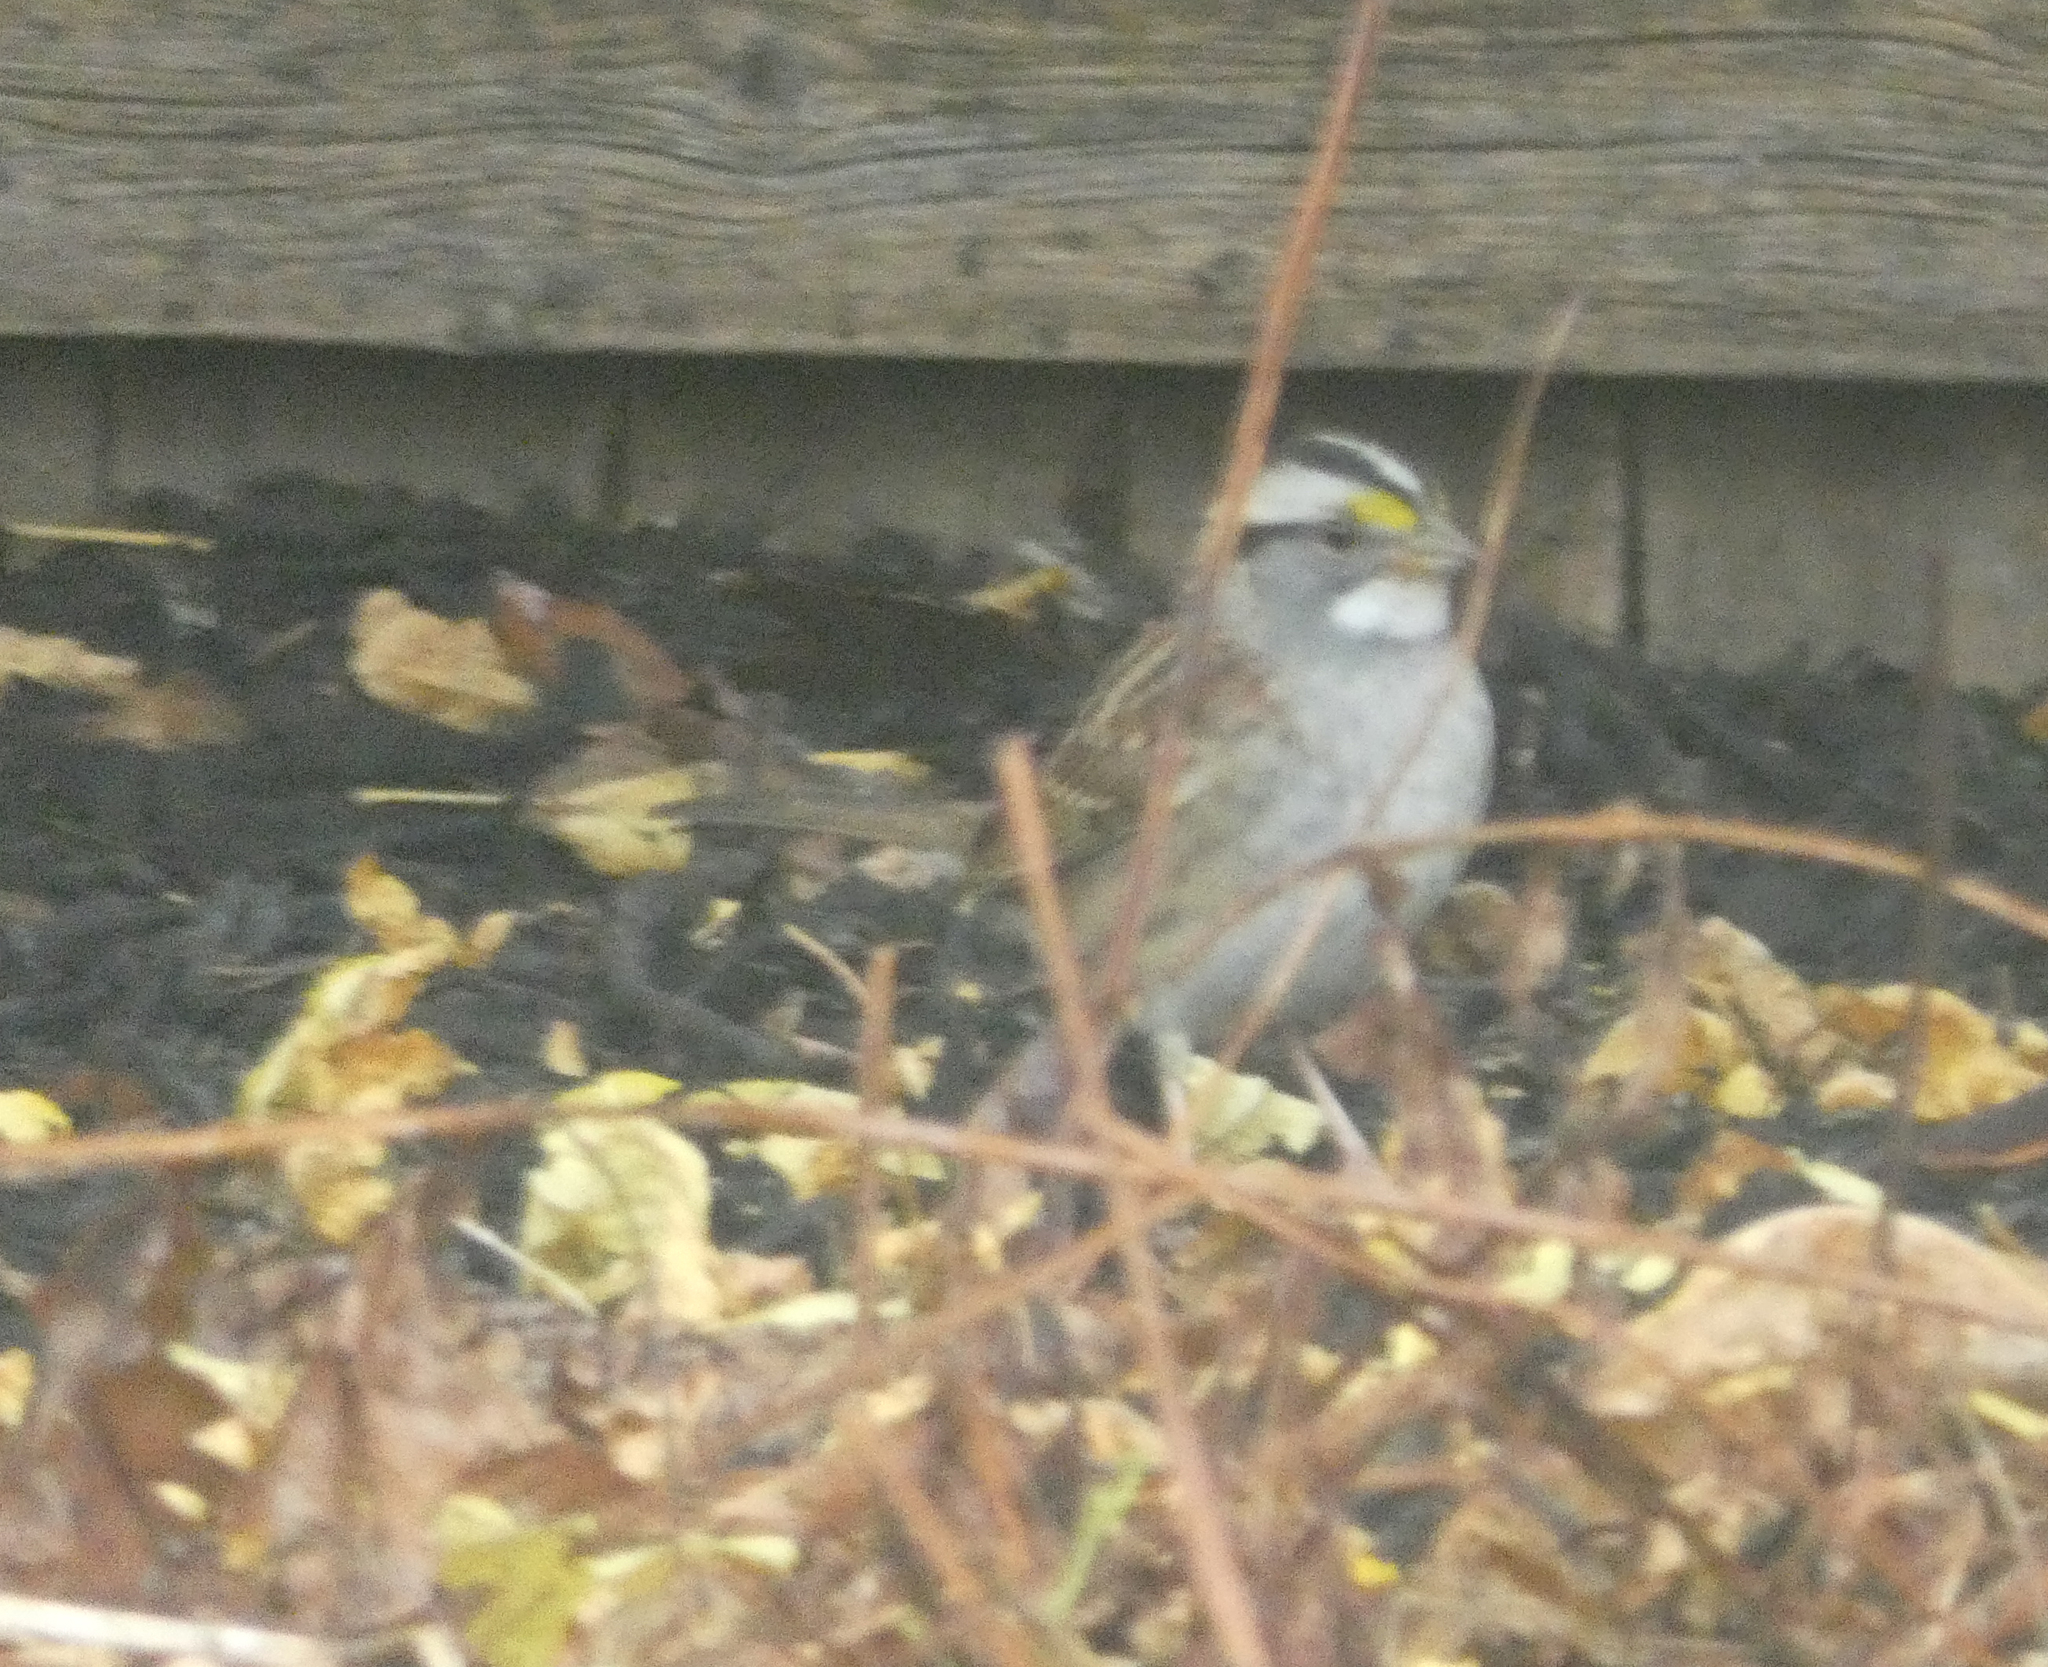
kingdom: Animalia
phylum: Chordata
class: Aves
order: Passeriformes
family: Passerellidae
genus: Zonotrichia
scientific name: Zonotrichia albicollis
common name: White-throated sparrow
